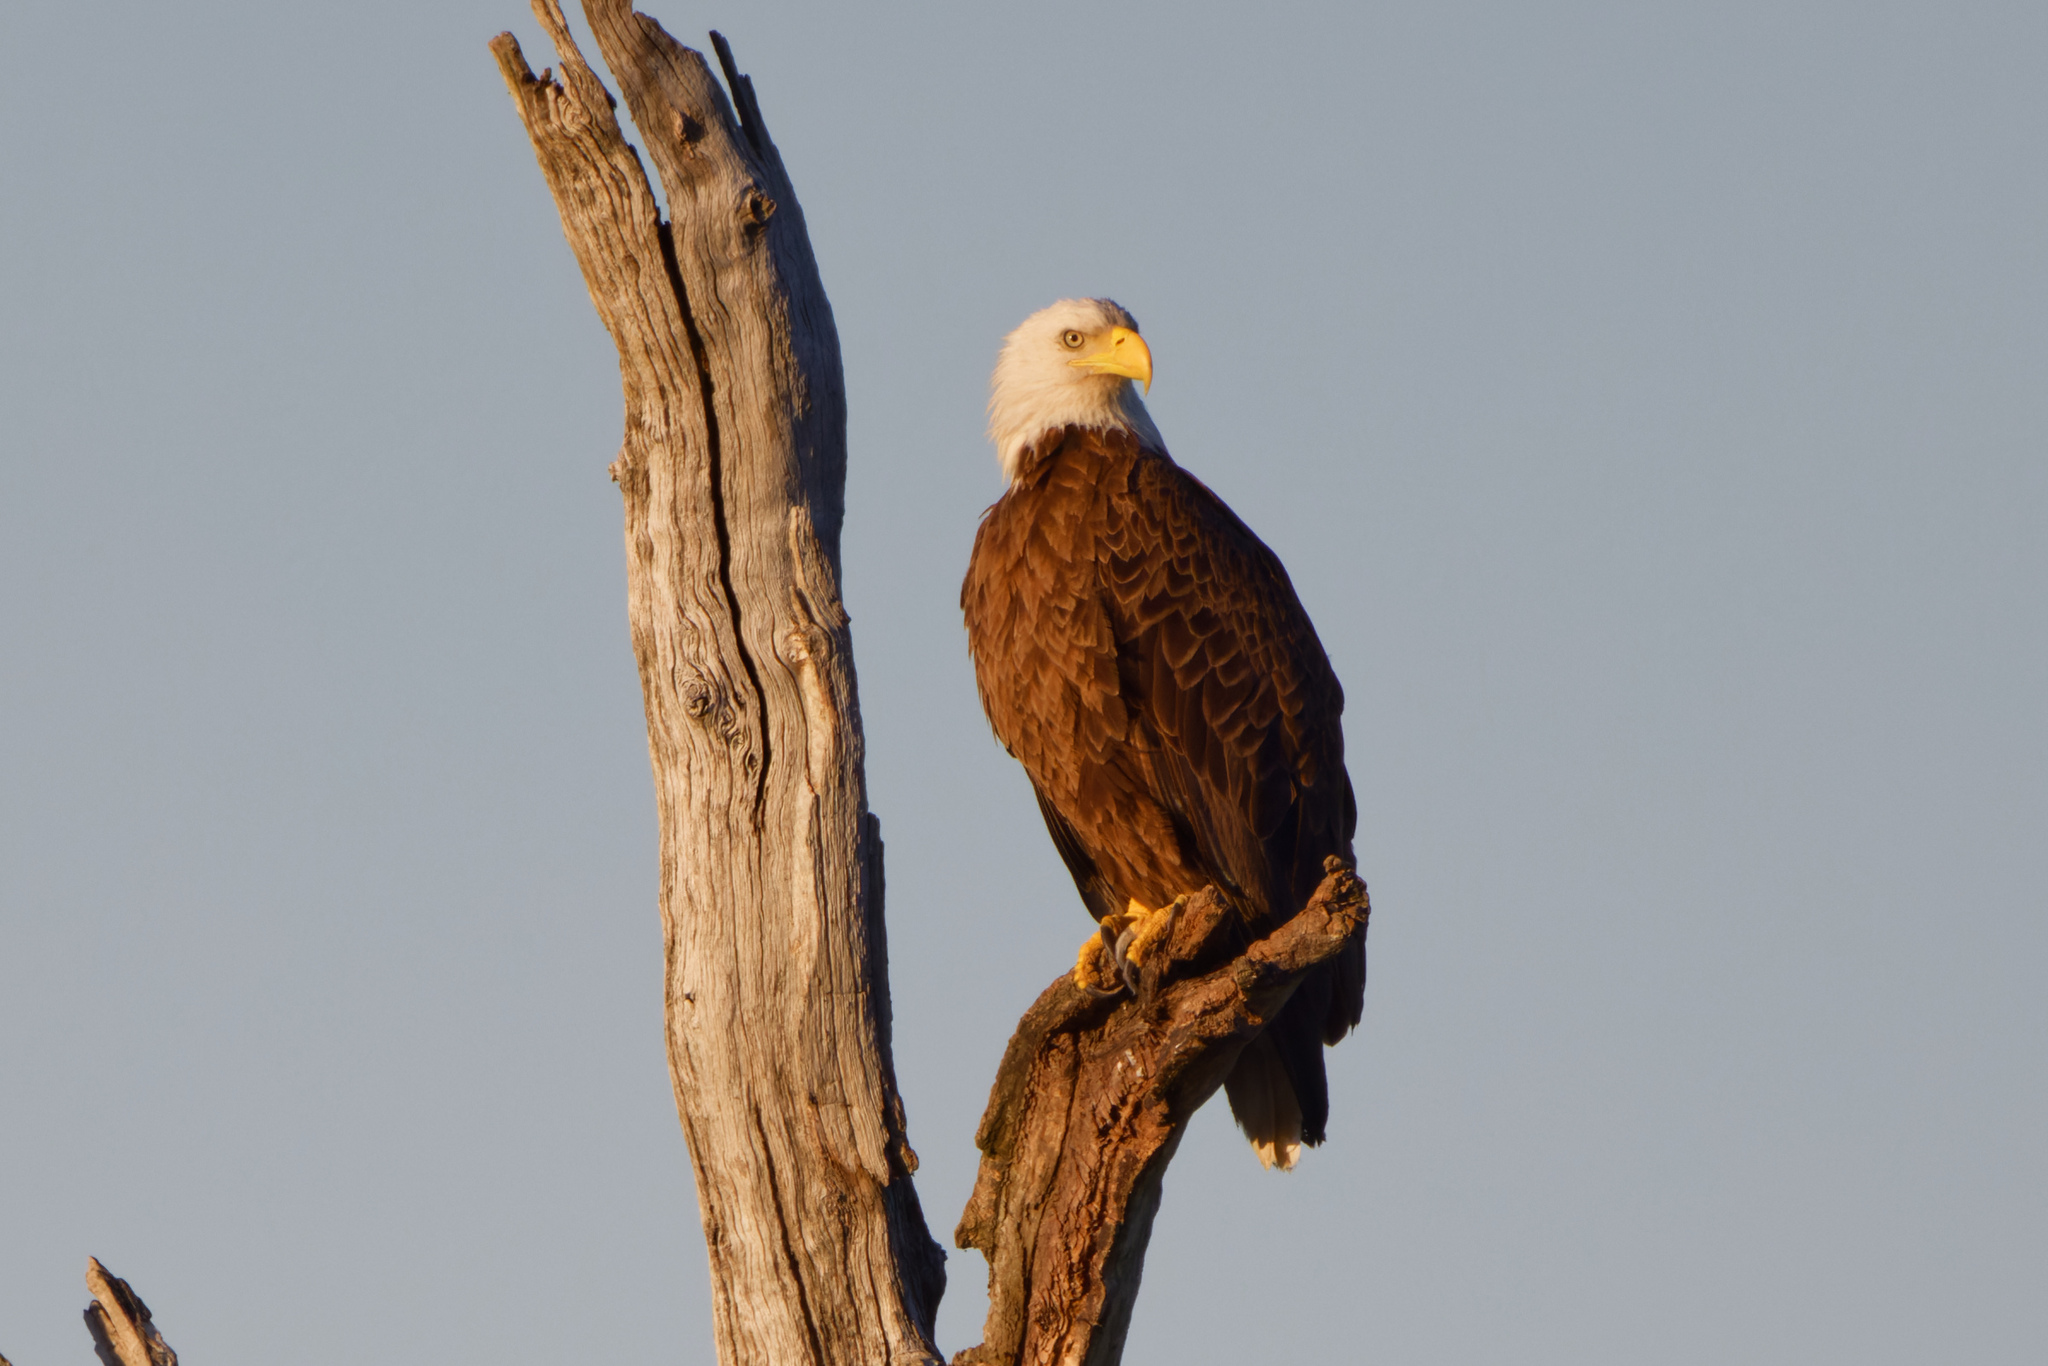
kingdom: Animalia
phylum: Chordata
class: Aves
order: Accipitriformes
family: Accipitridae
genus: Haliaeetus
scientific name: Haliaeetus leucocephalus
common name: Bald eagle
